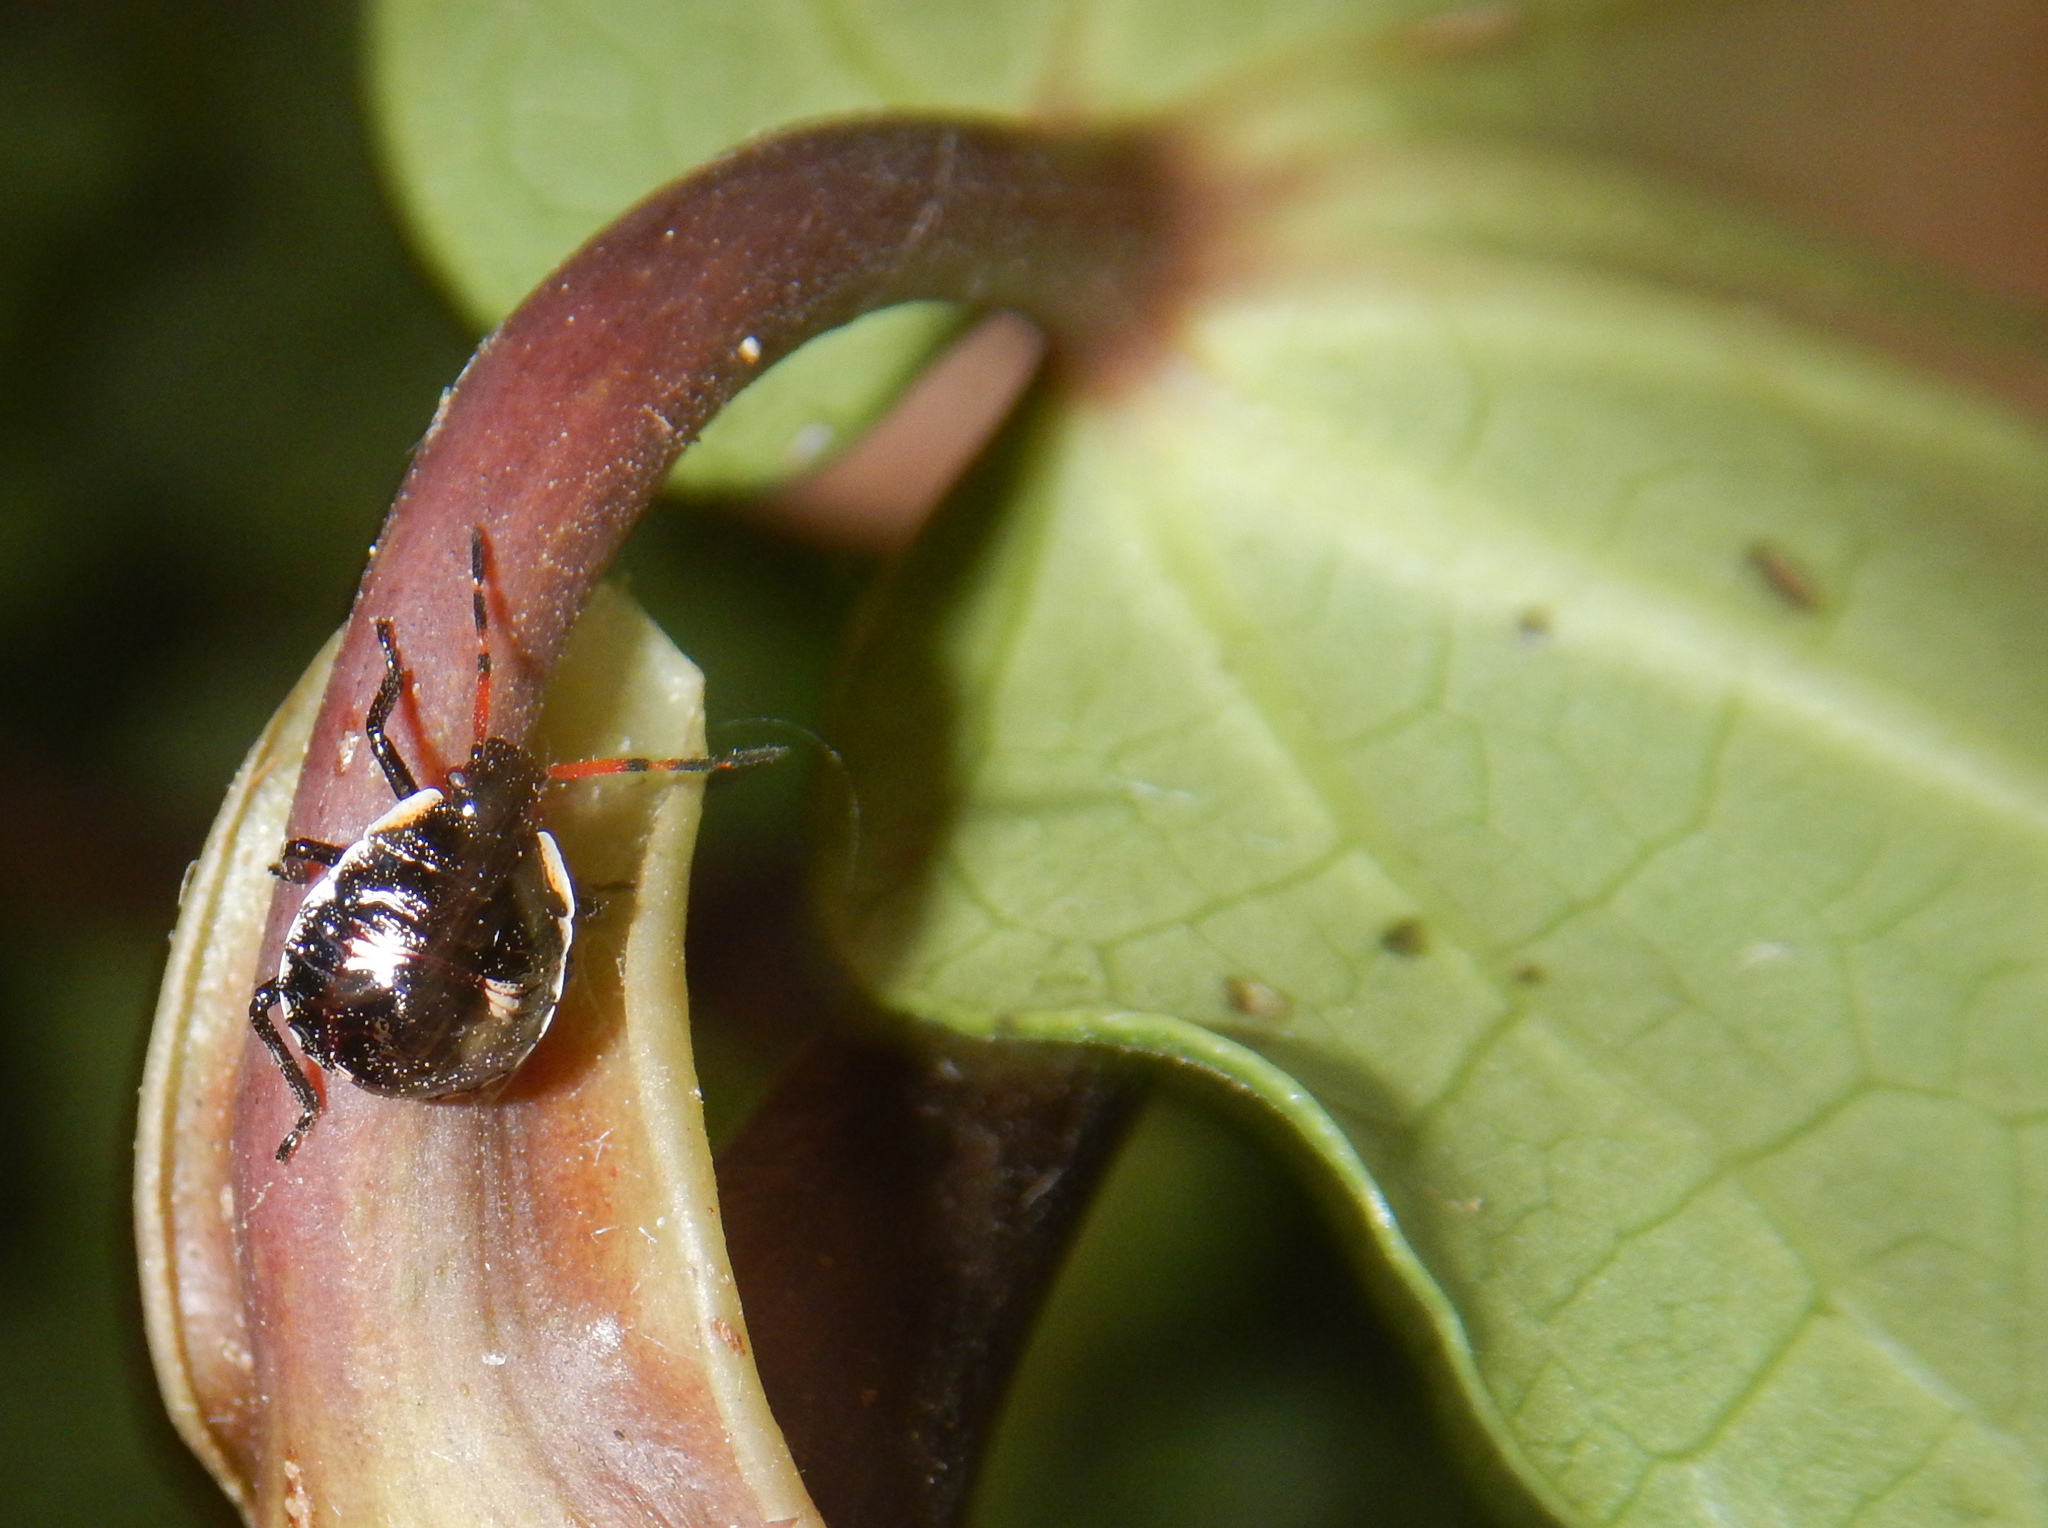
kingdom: Animalia
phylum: Arthropoda
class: Insecta
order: Hemiptera
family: Pentatomidae
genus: Cermatulus
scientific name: Cermatulus nasalis
